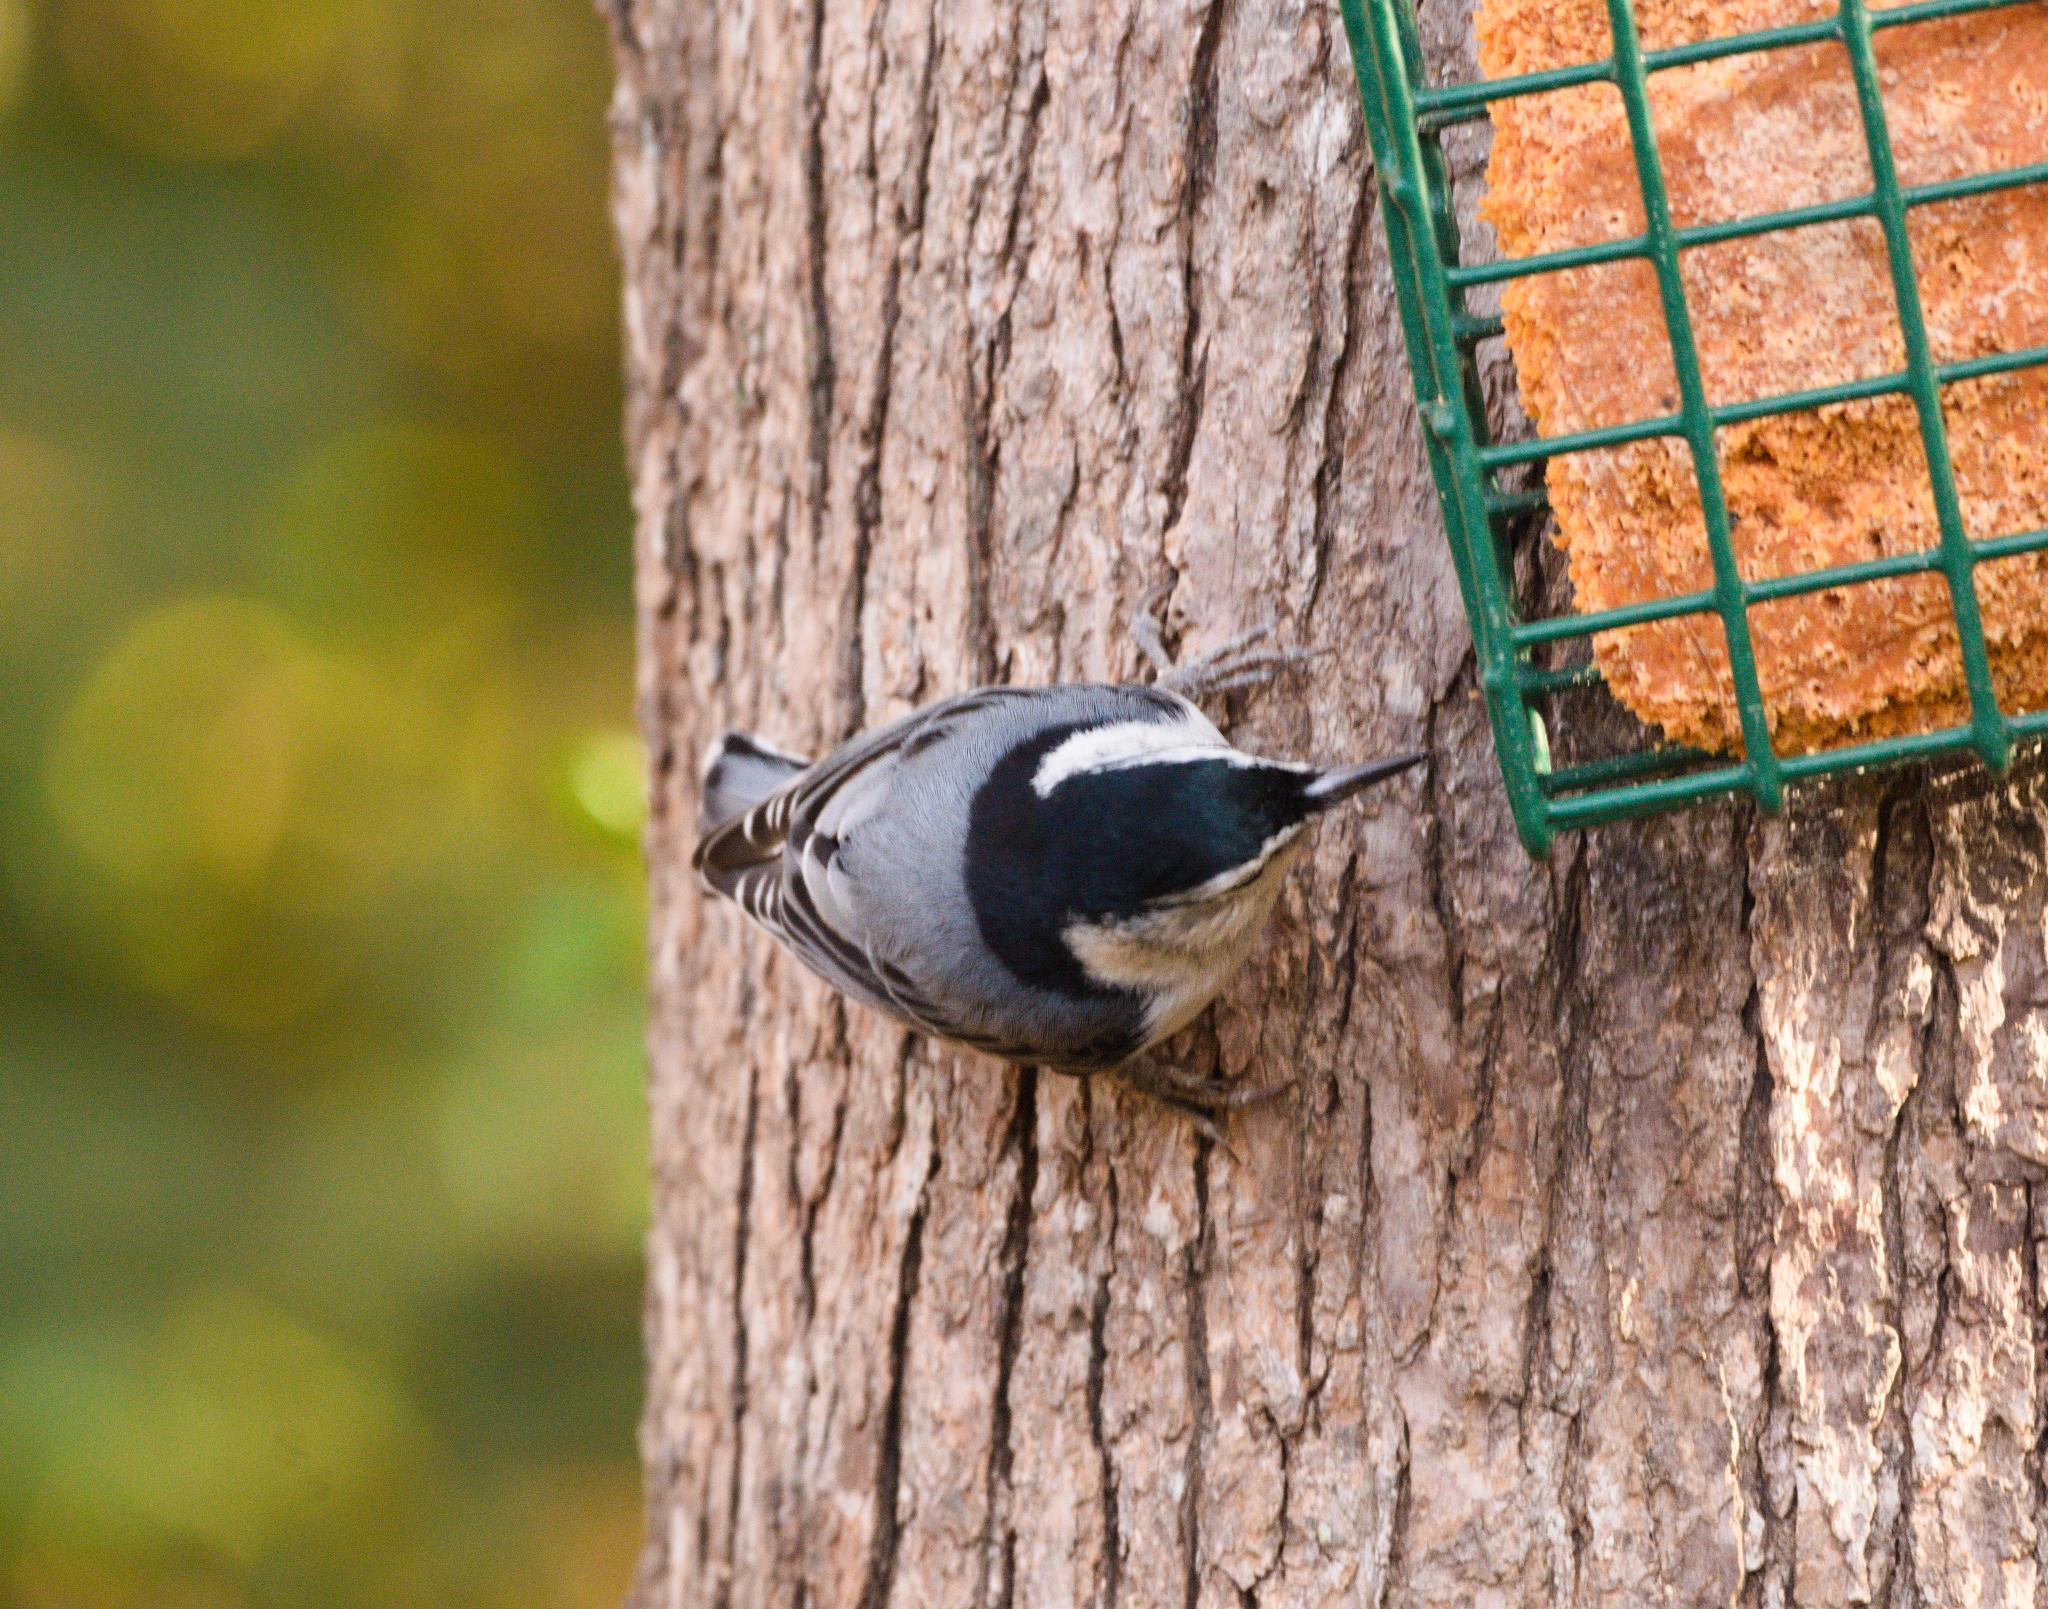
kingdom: Animalia
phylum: Chordata
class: Aves
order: Passeriformes
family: Sittidae
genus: Sitta
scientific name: Sitta carolinensis
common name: White-breasted nuthatch
